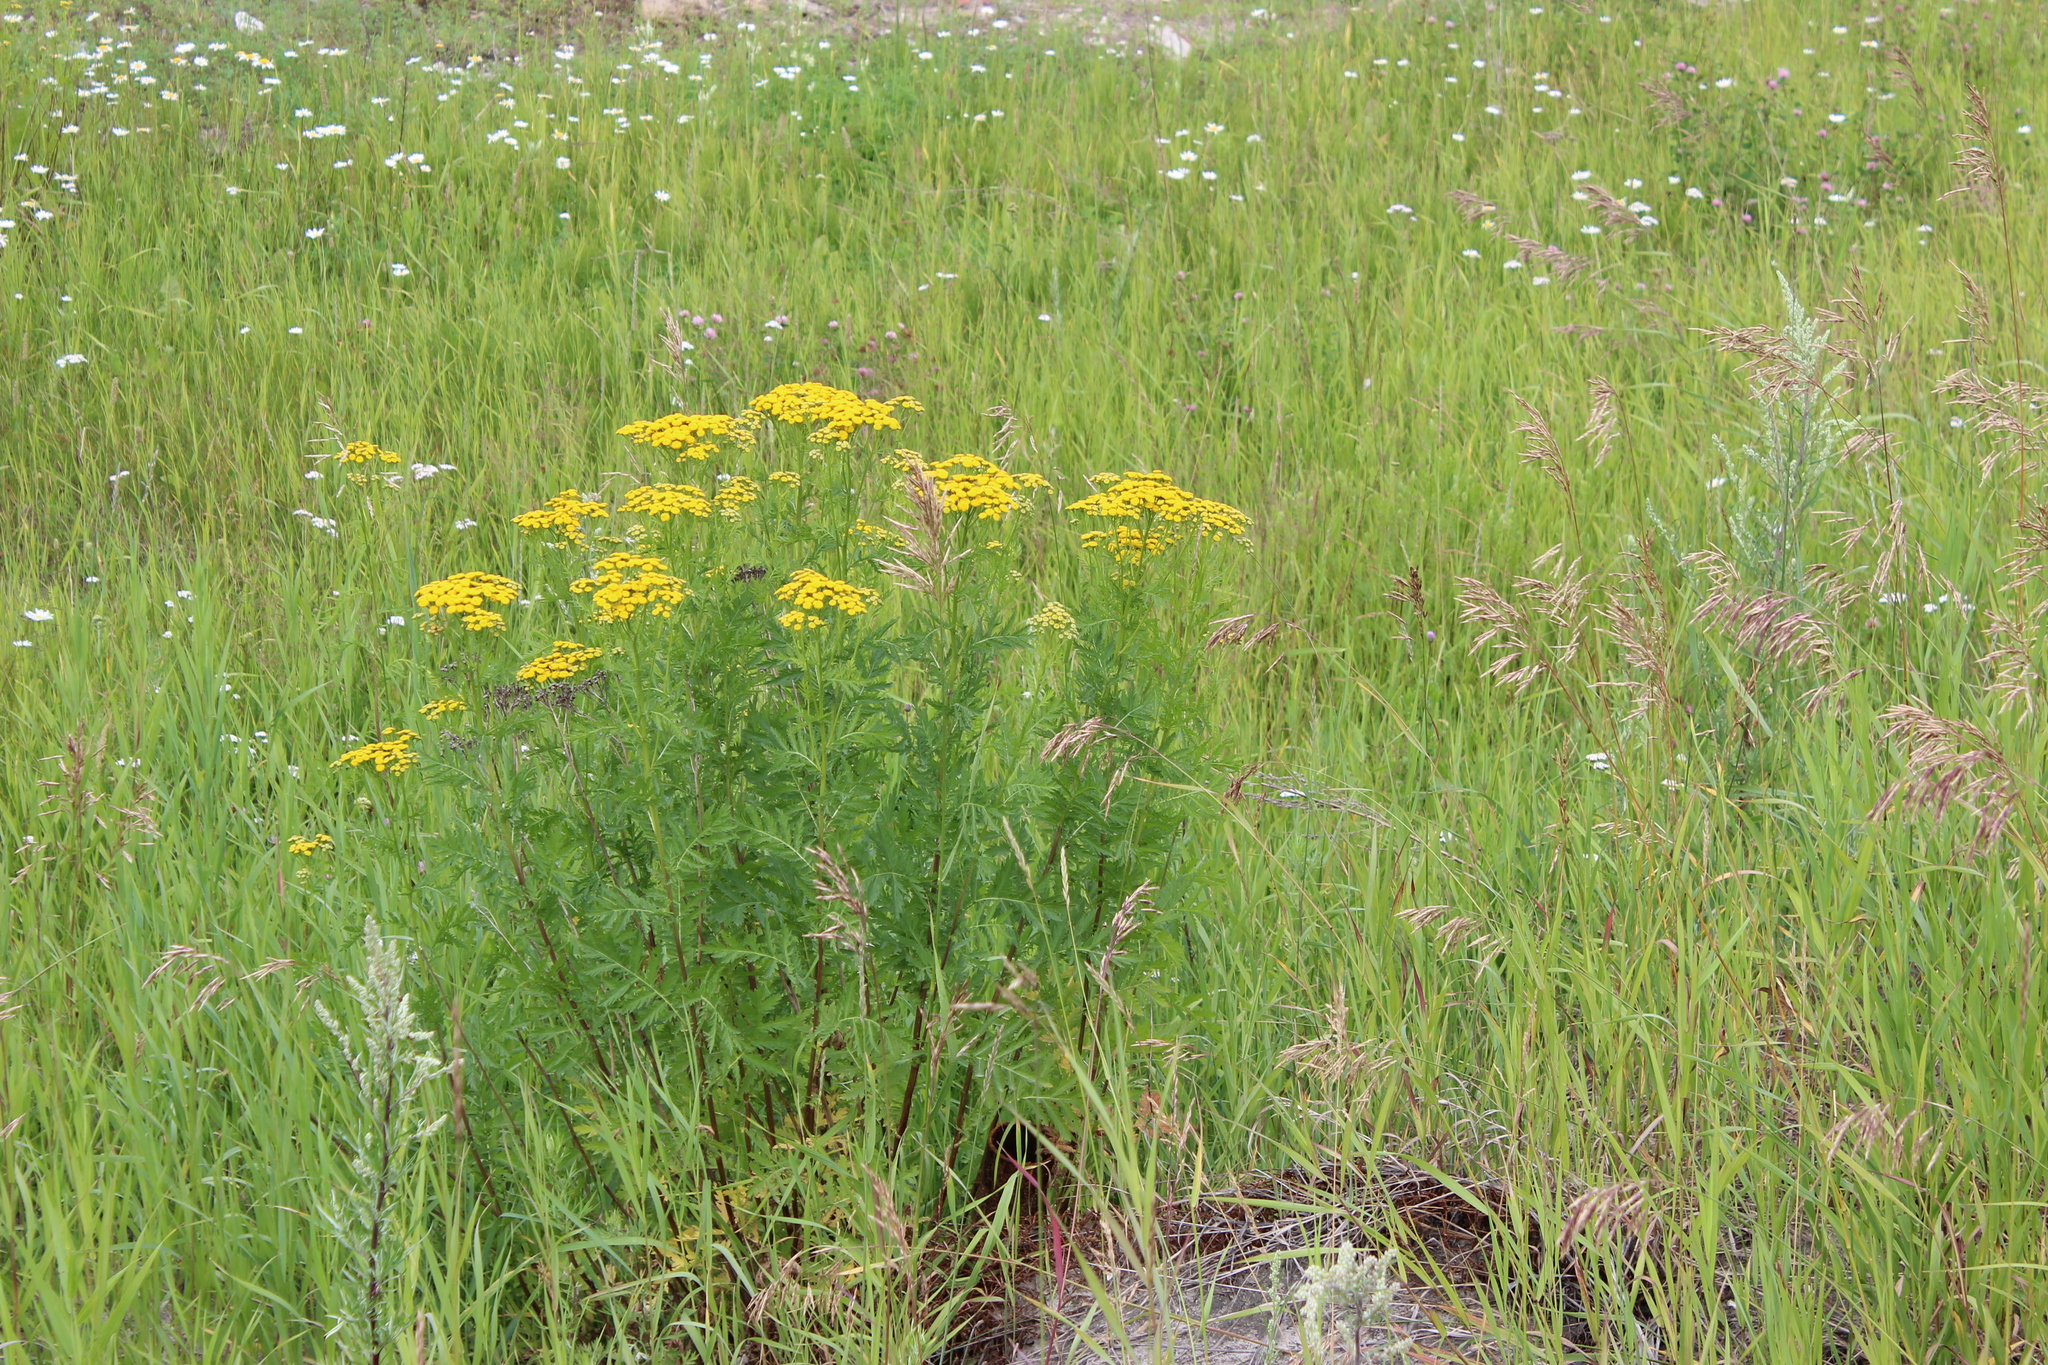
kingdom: Plantae
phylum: Tracheophyta
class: Magnoliopsida
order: Asterales
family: Asteraceae
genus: Tanacetum
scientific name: Tanacetum vulgare
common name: Common tansy
